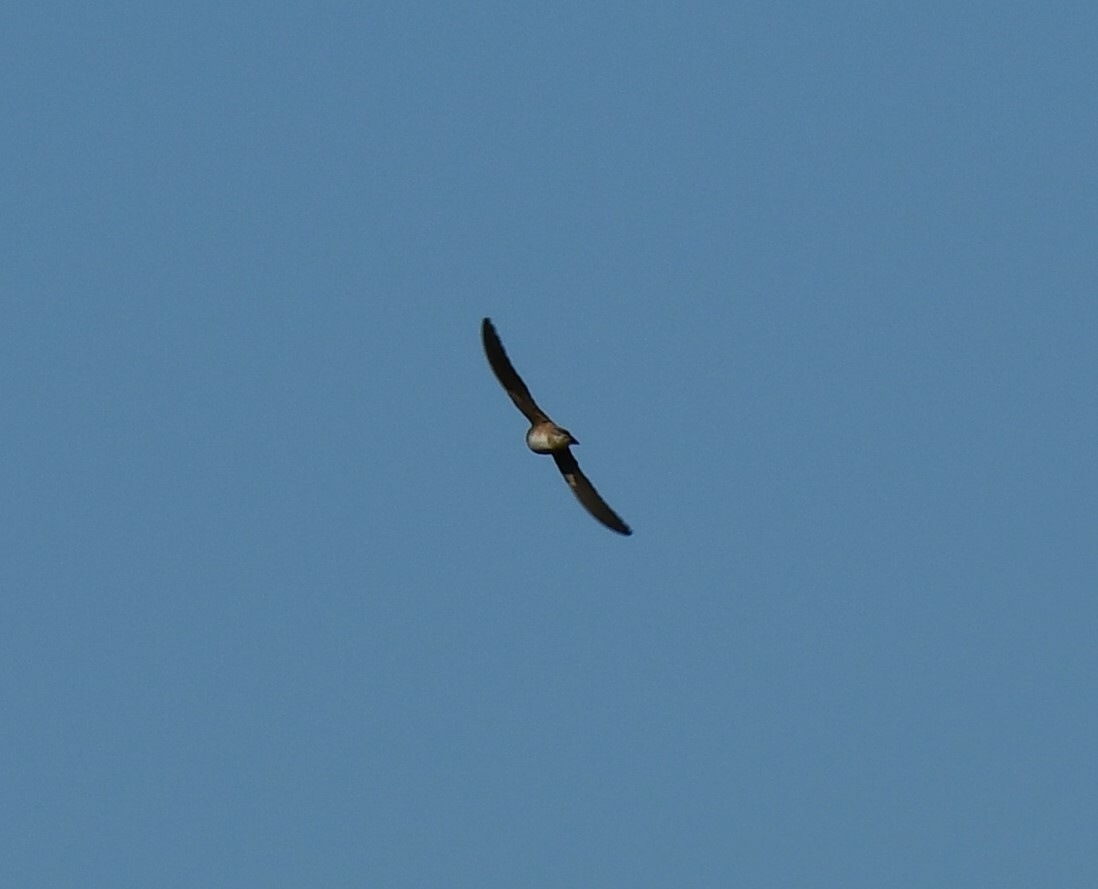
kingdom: Animalia
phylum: Chordata
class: Aves
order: Passeriformes
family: Hirundinidae
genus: Petrochelidon
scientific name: Petrochelidon nigricans
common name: Tree martin
